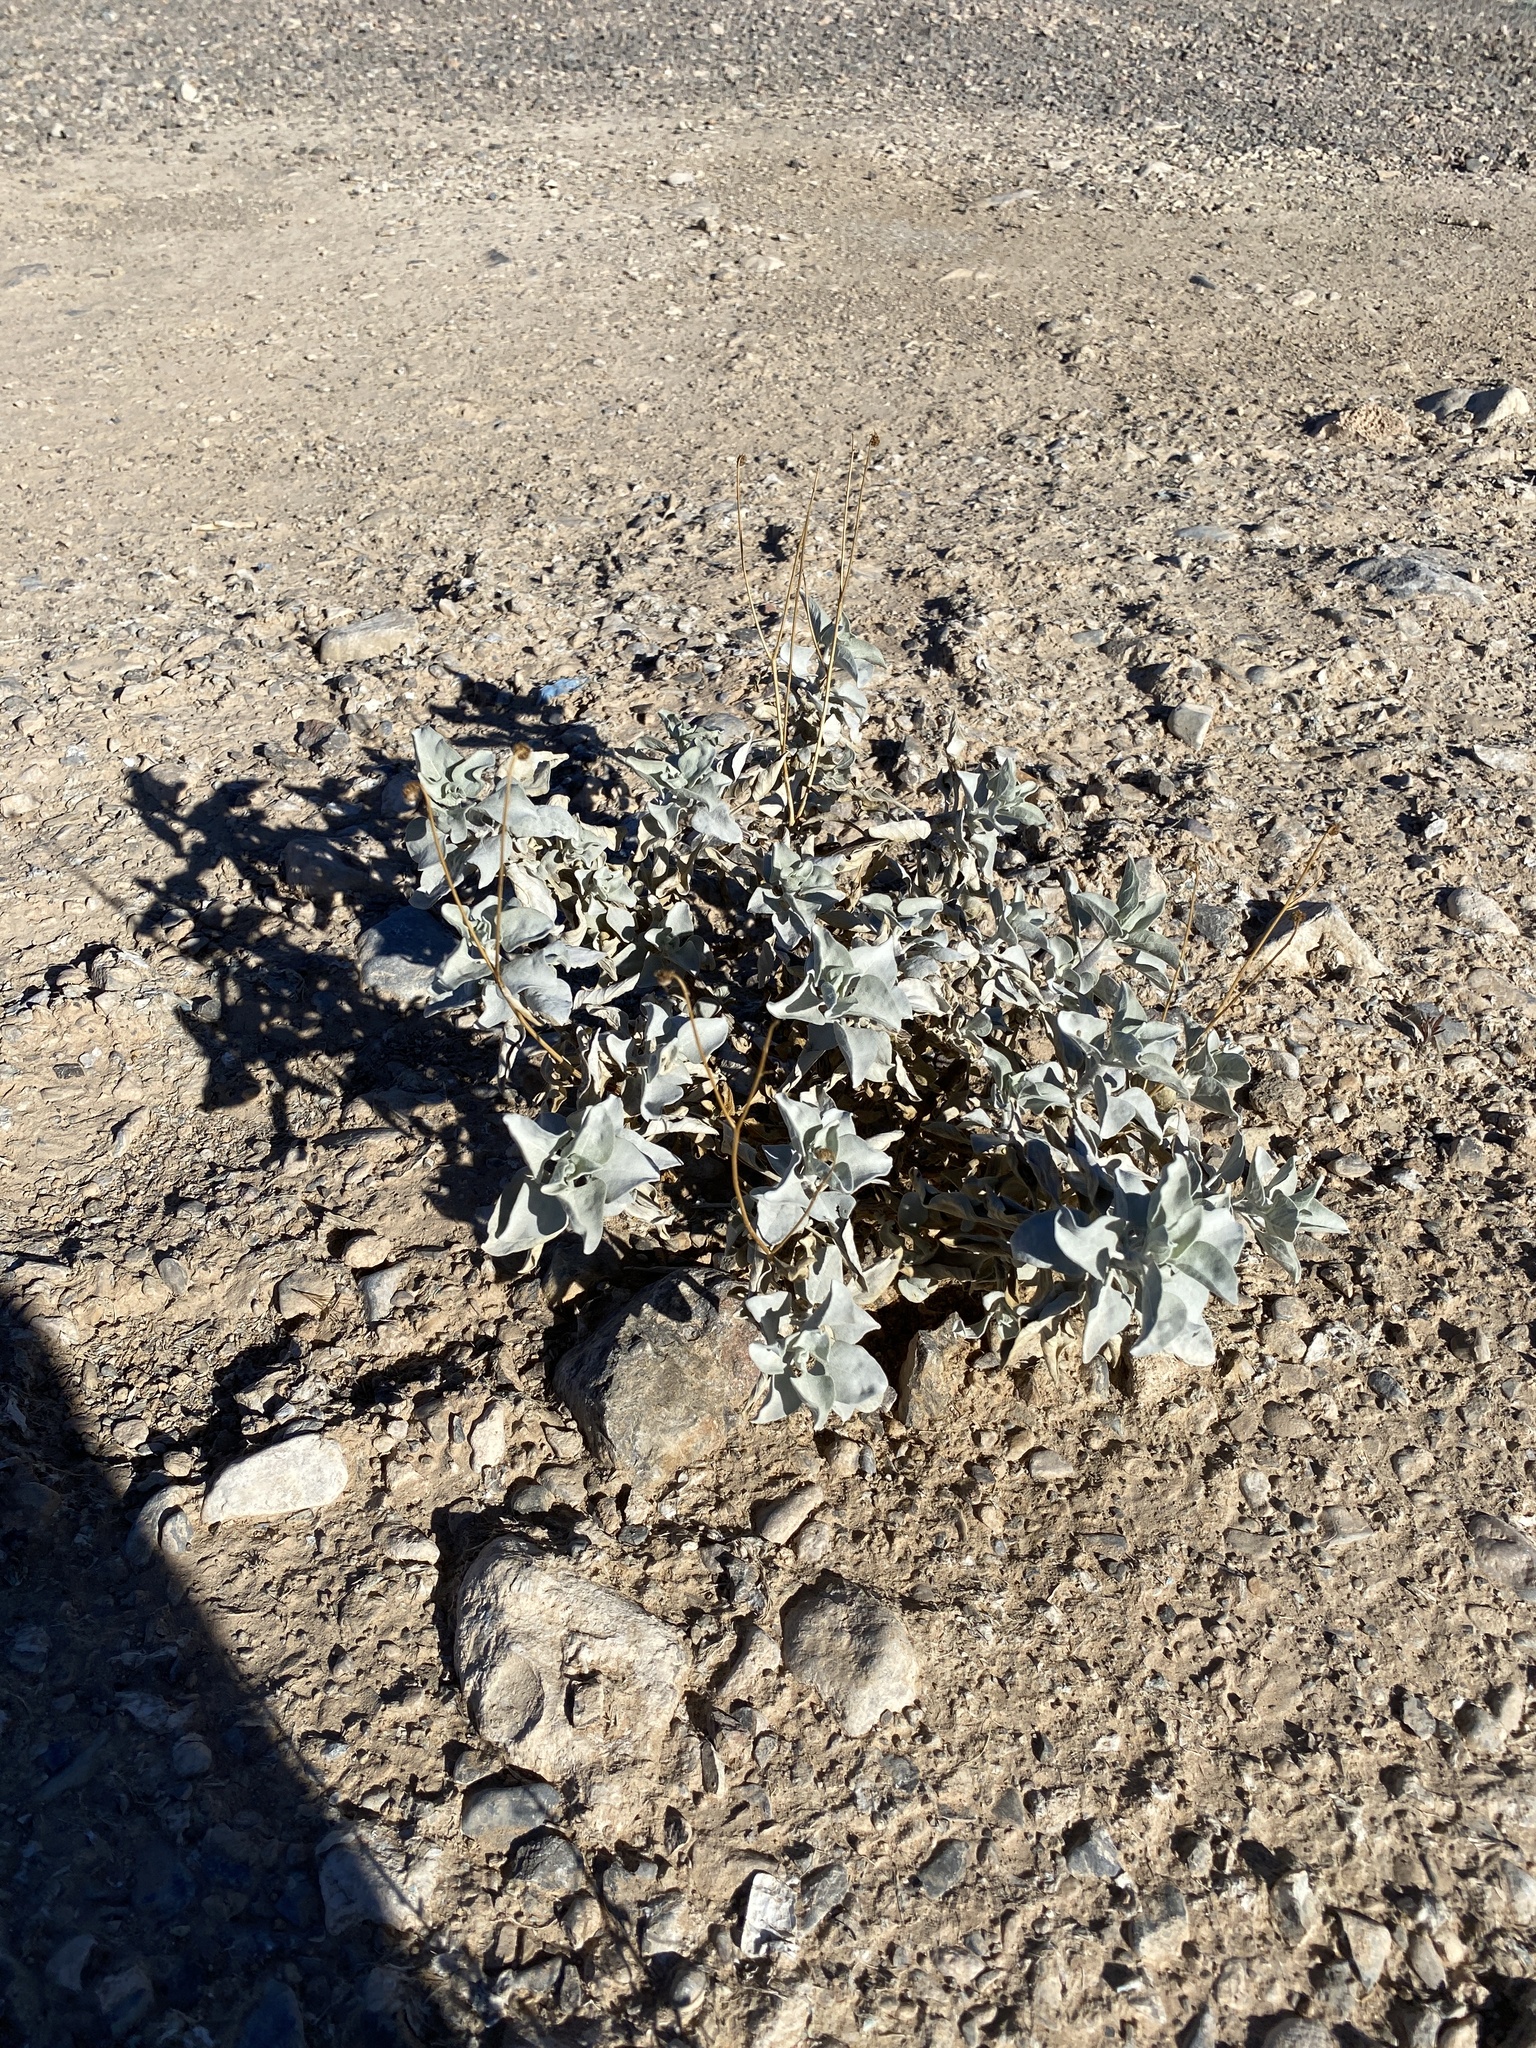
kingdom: Plantae
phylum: Tracheophyta
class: Magnoliopsida
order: Asterales
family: Asteraceae
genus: Encelia
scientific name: Encelia farinosa
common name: Brittlebush
